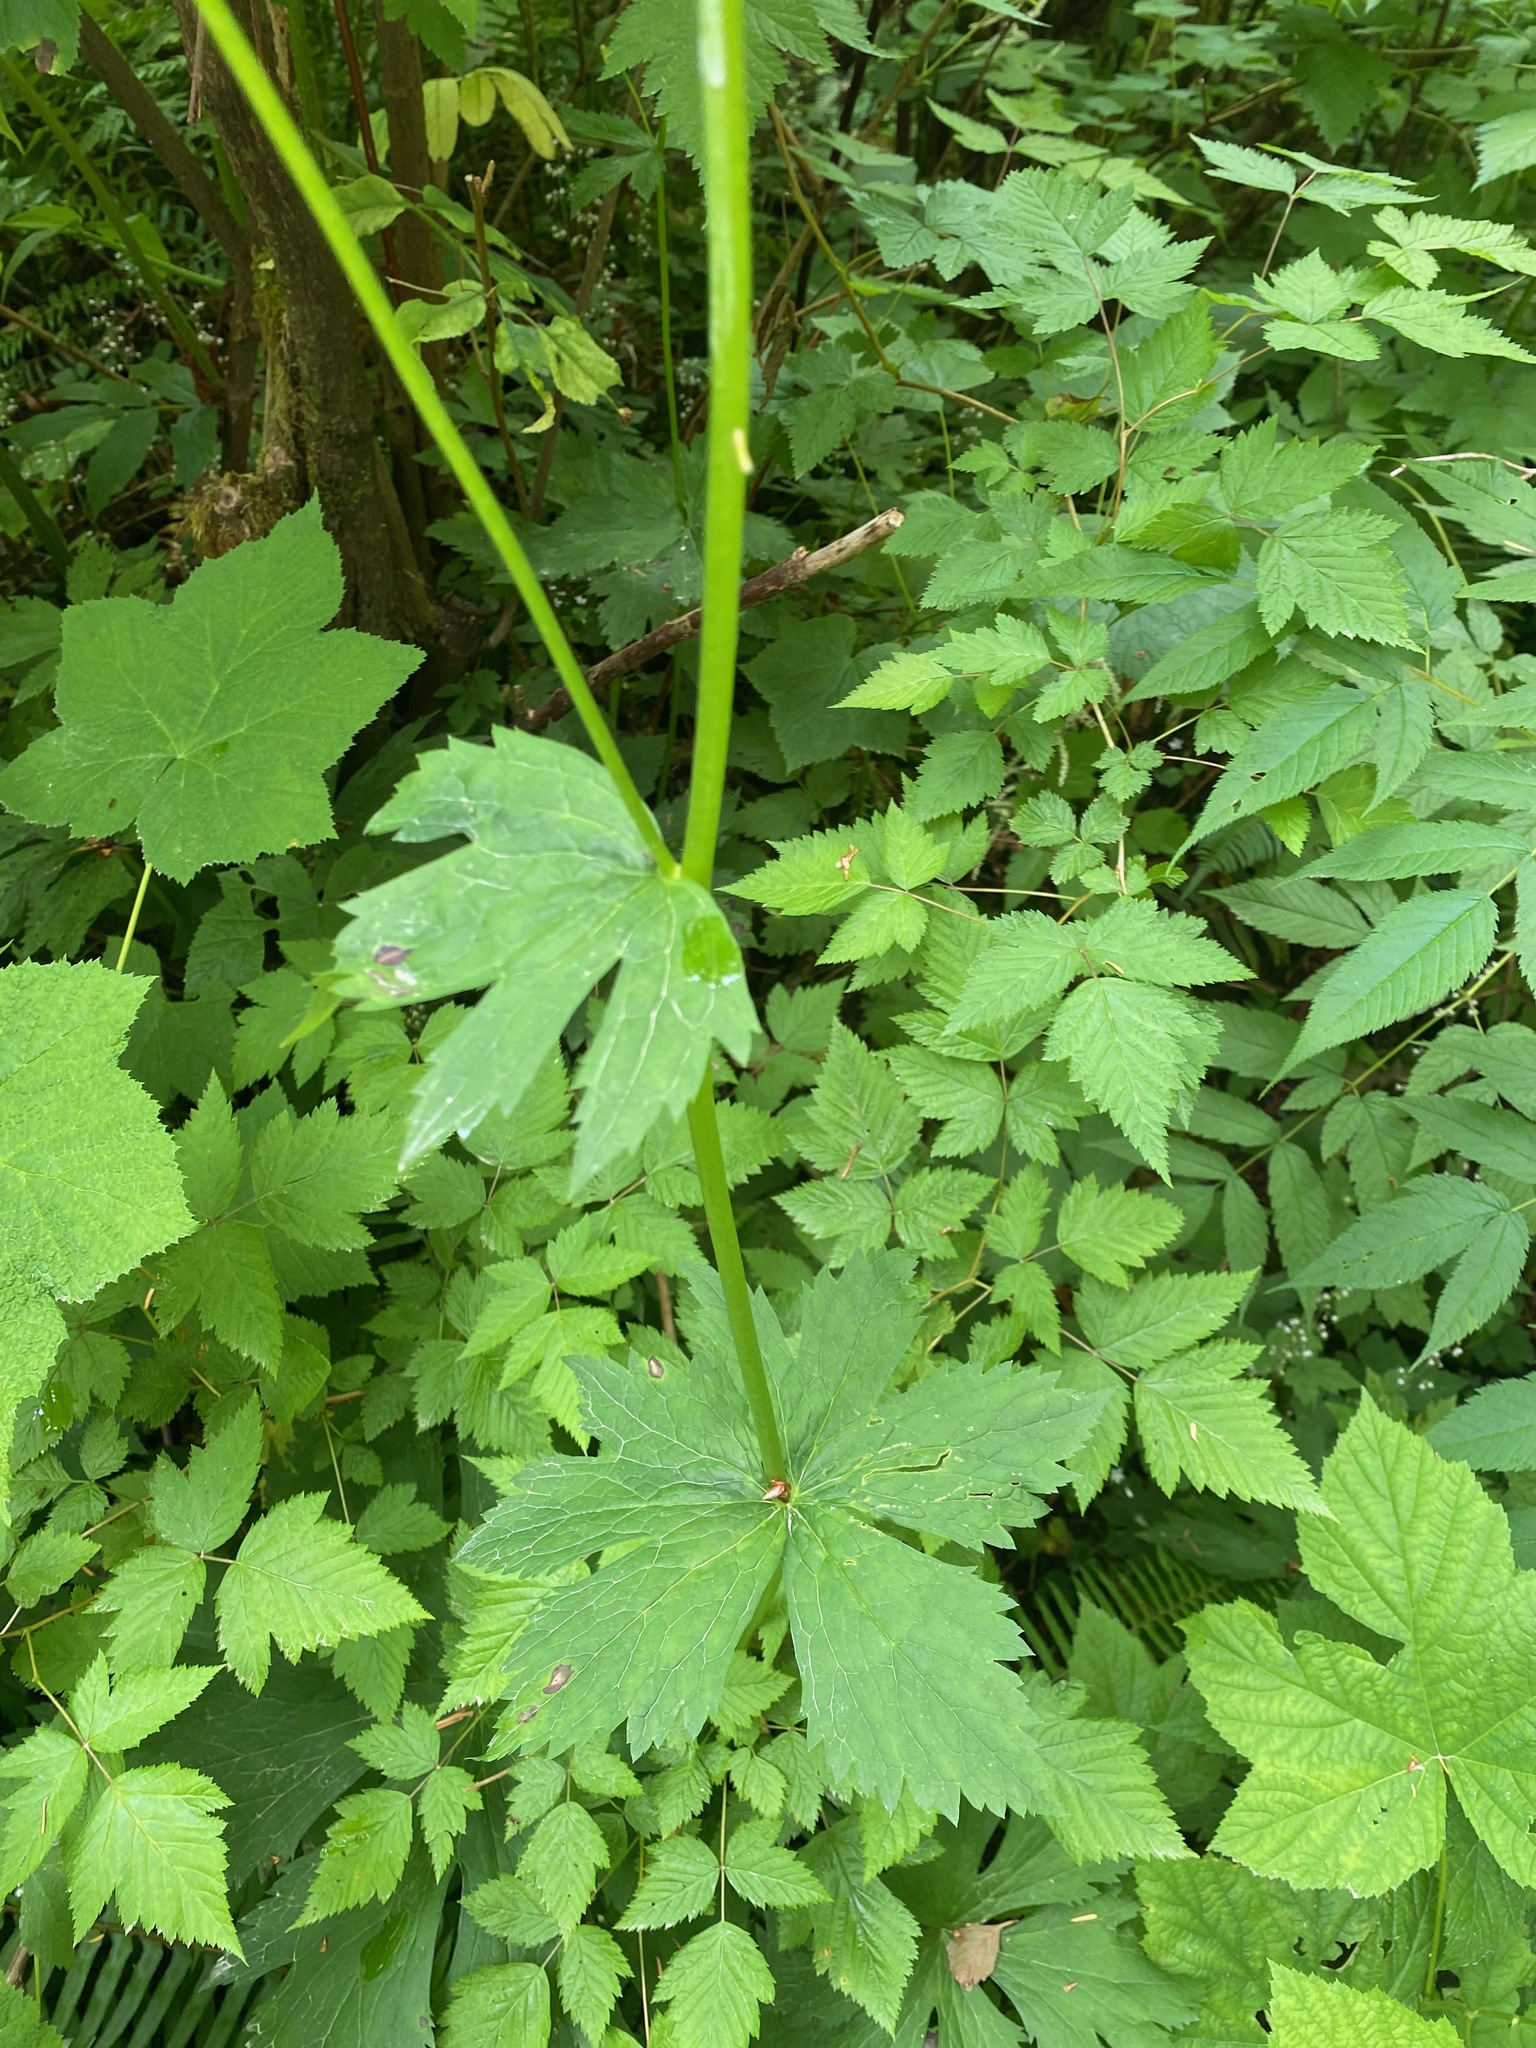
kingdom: Plantae
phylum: Tracheophyta
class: Magnoliopsida
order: Ranunculales
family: Ranunculaceae
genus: Trautvetteria
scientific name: Trautvetteria carolinensis
